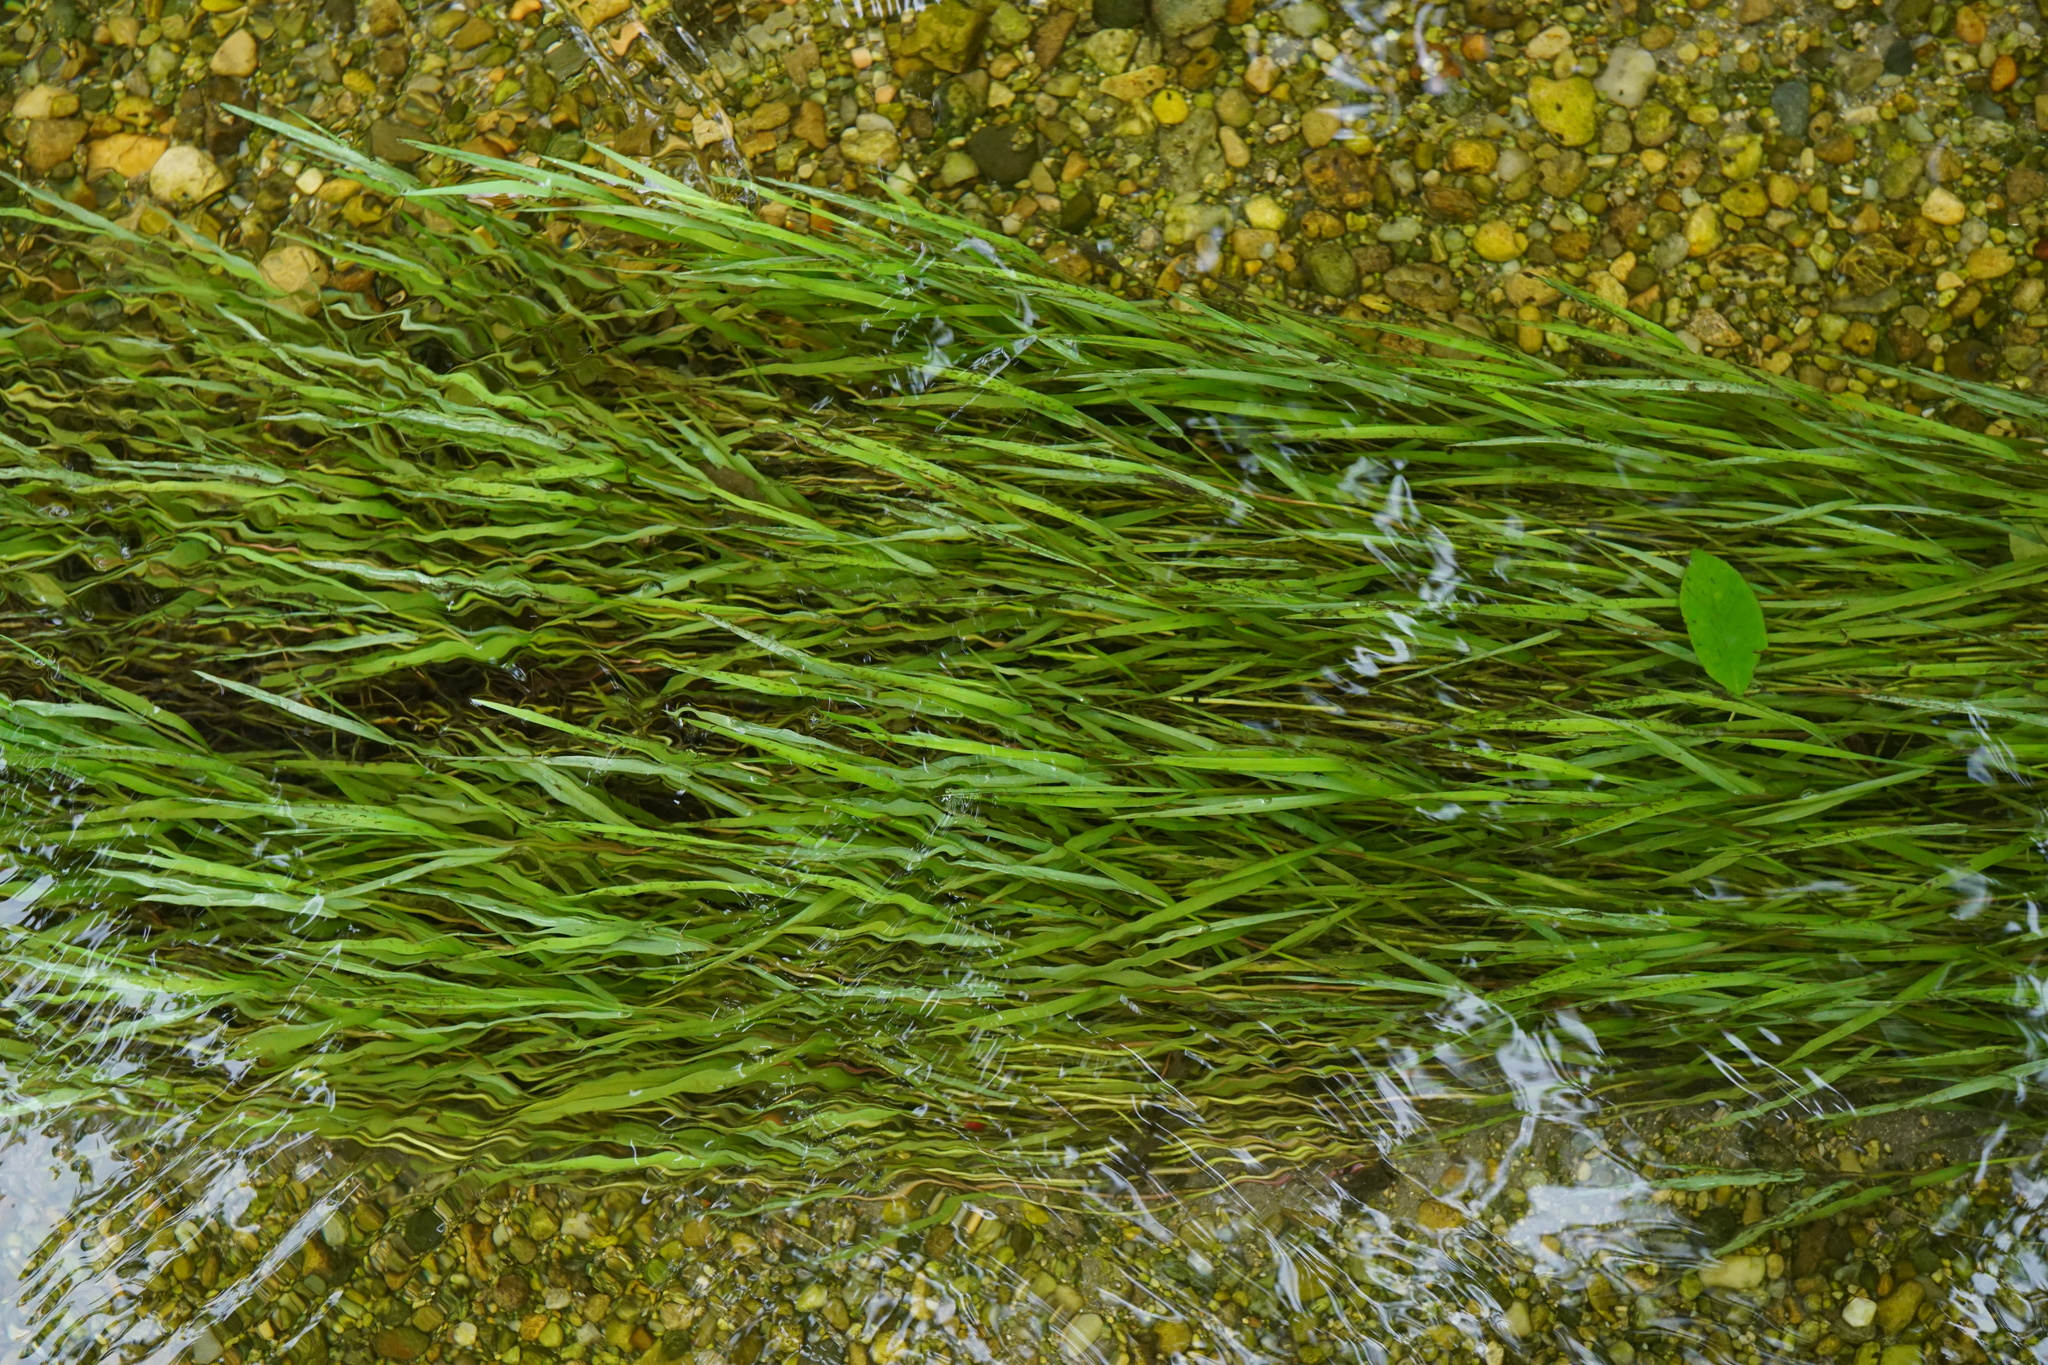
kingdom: Plantae
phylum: Tracheophyta
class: Liliopsida
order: Poales
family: Poaceae
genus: Agrostis
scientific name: Agrostis stolonifera
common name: Creeping bentgrass
